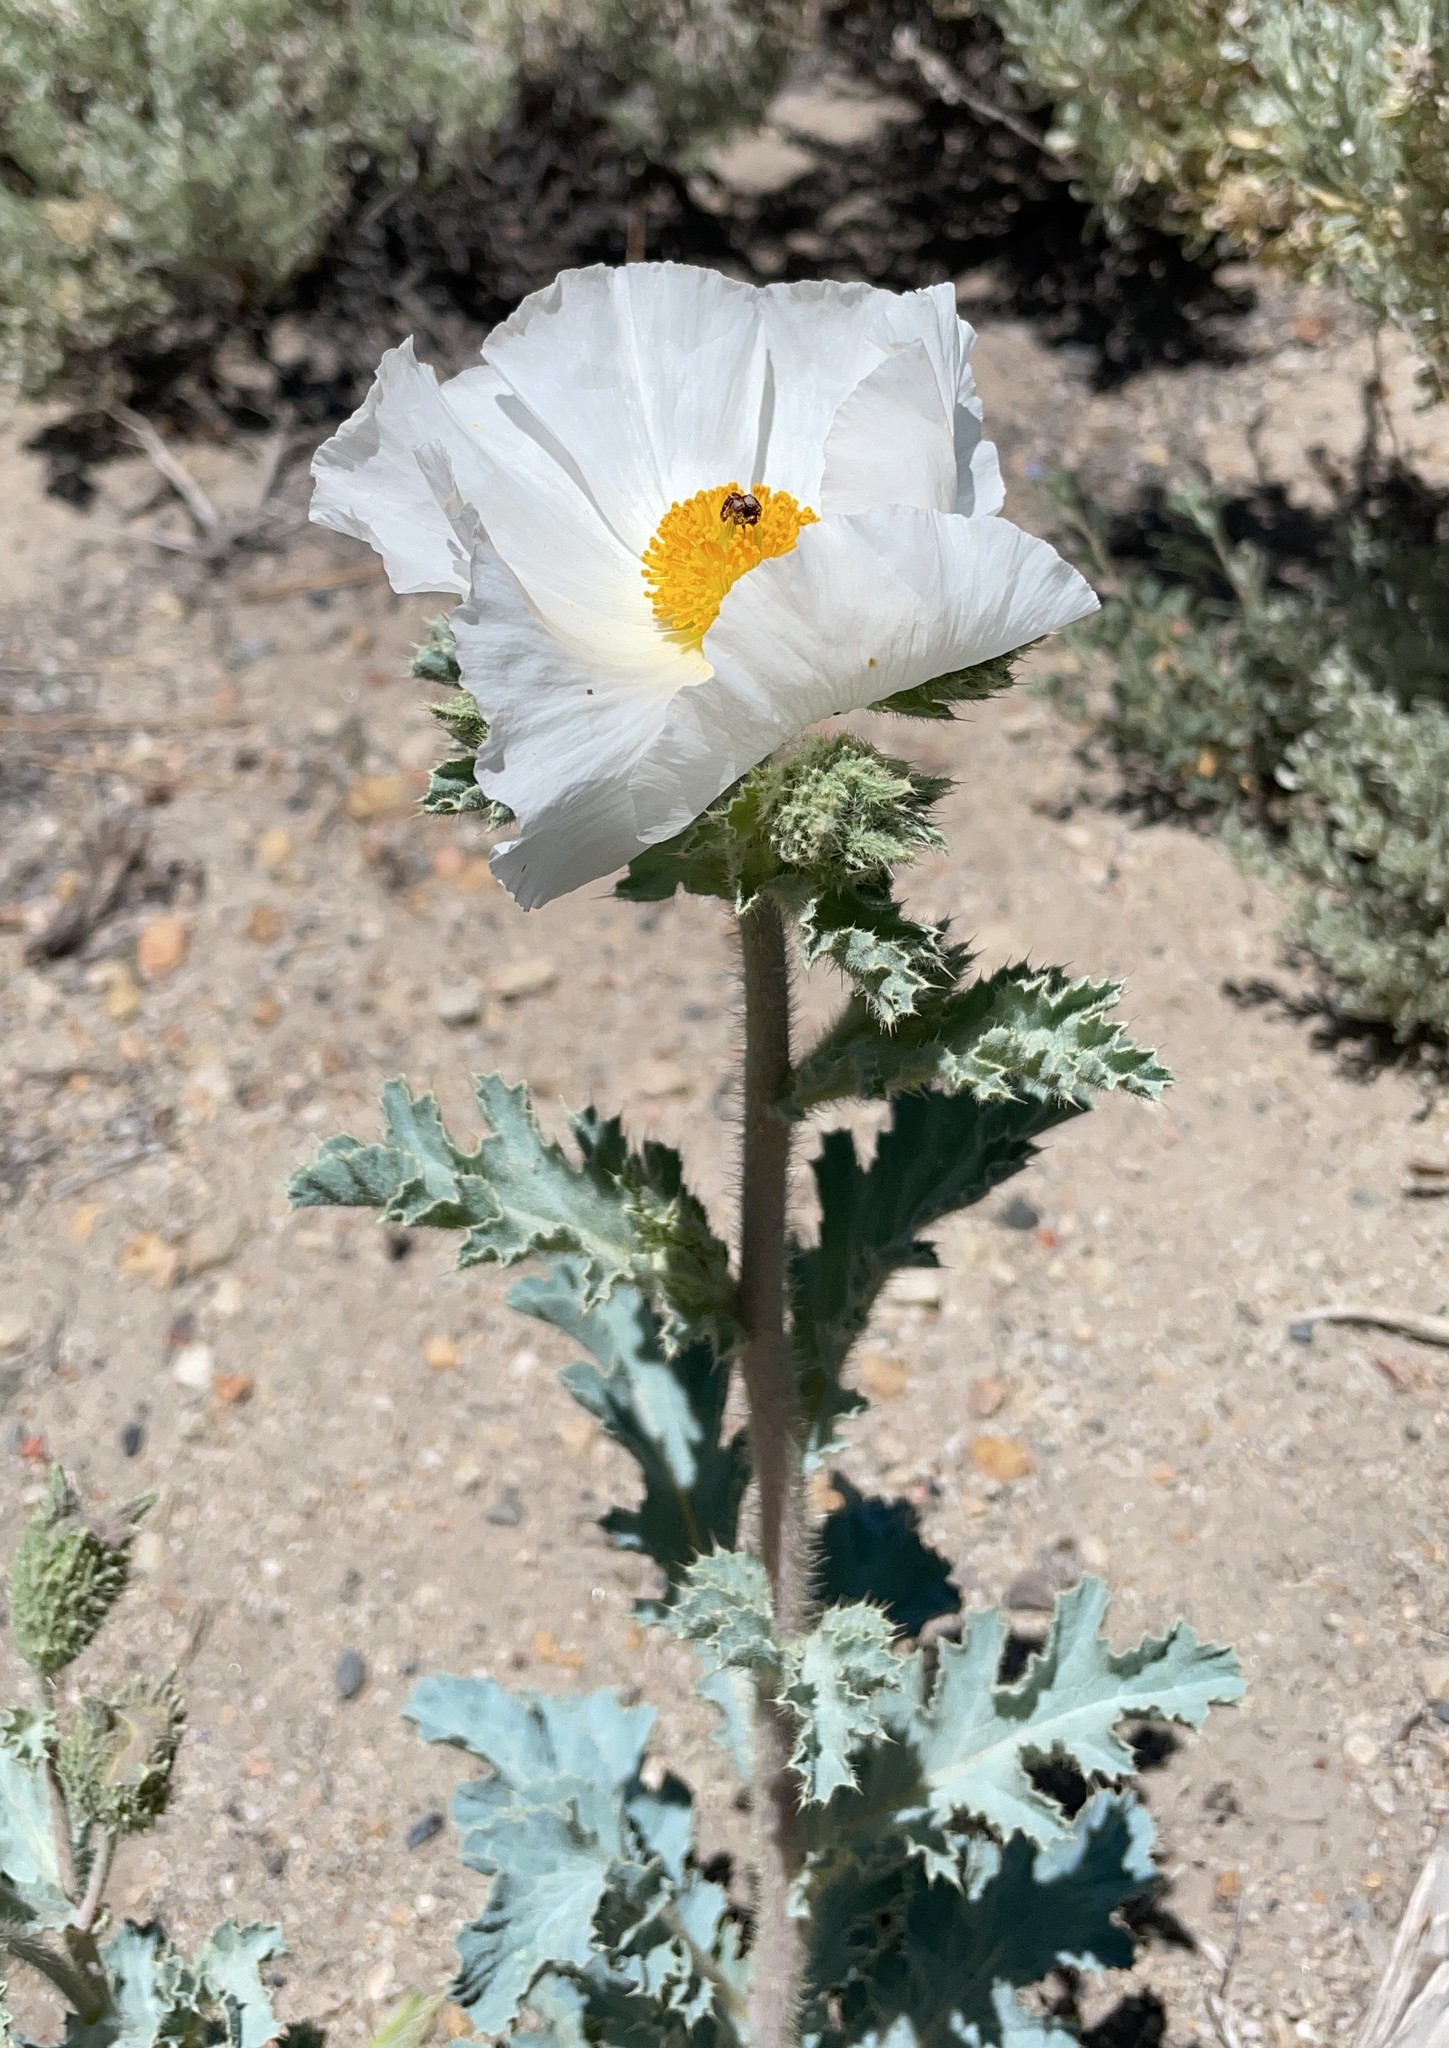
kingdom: Plantae
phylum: Tracheophyta
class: Magnoliopsida
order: Ranunculales
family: Papaveraceae
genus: Argemone
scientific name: Argemone munita
